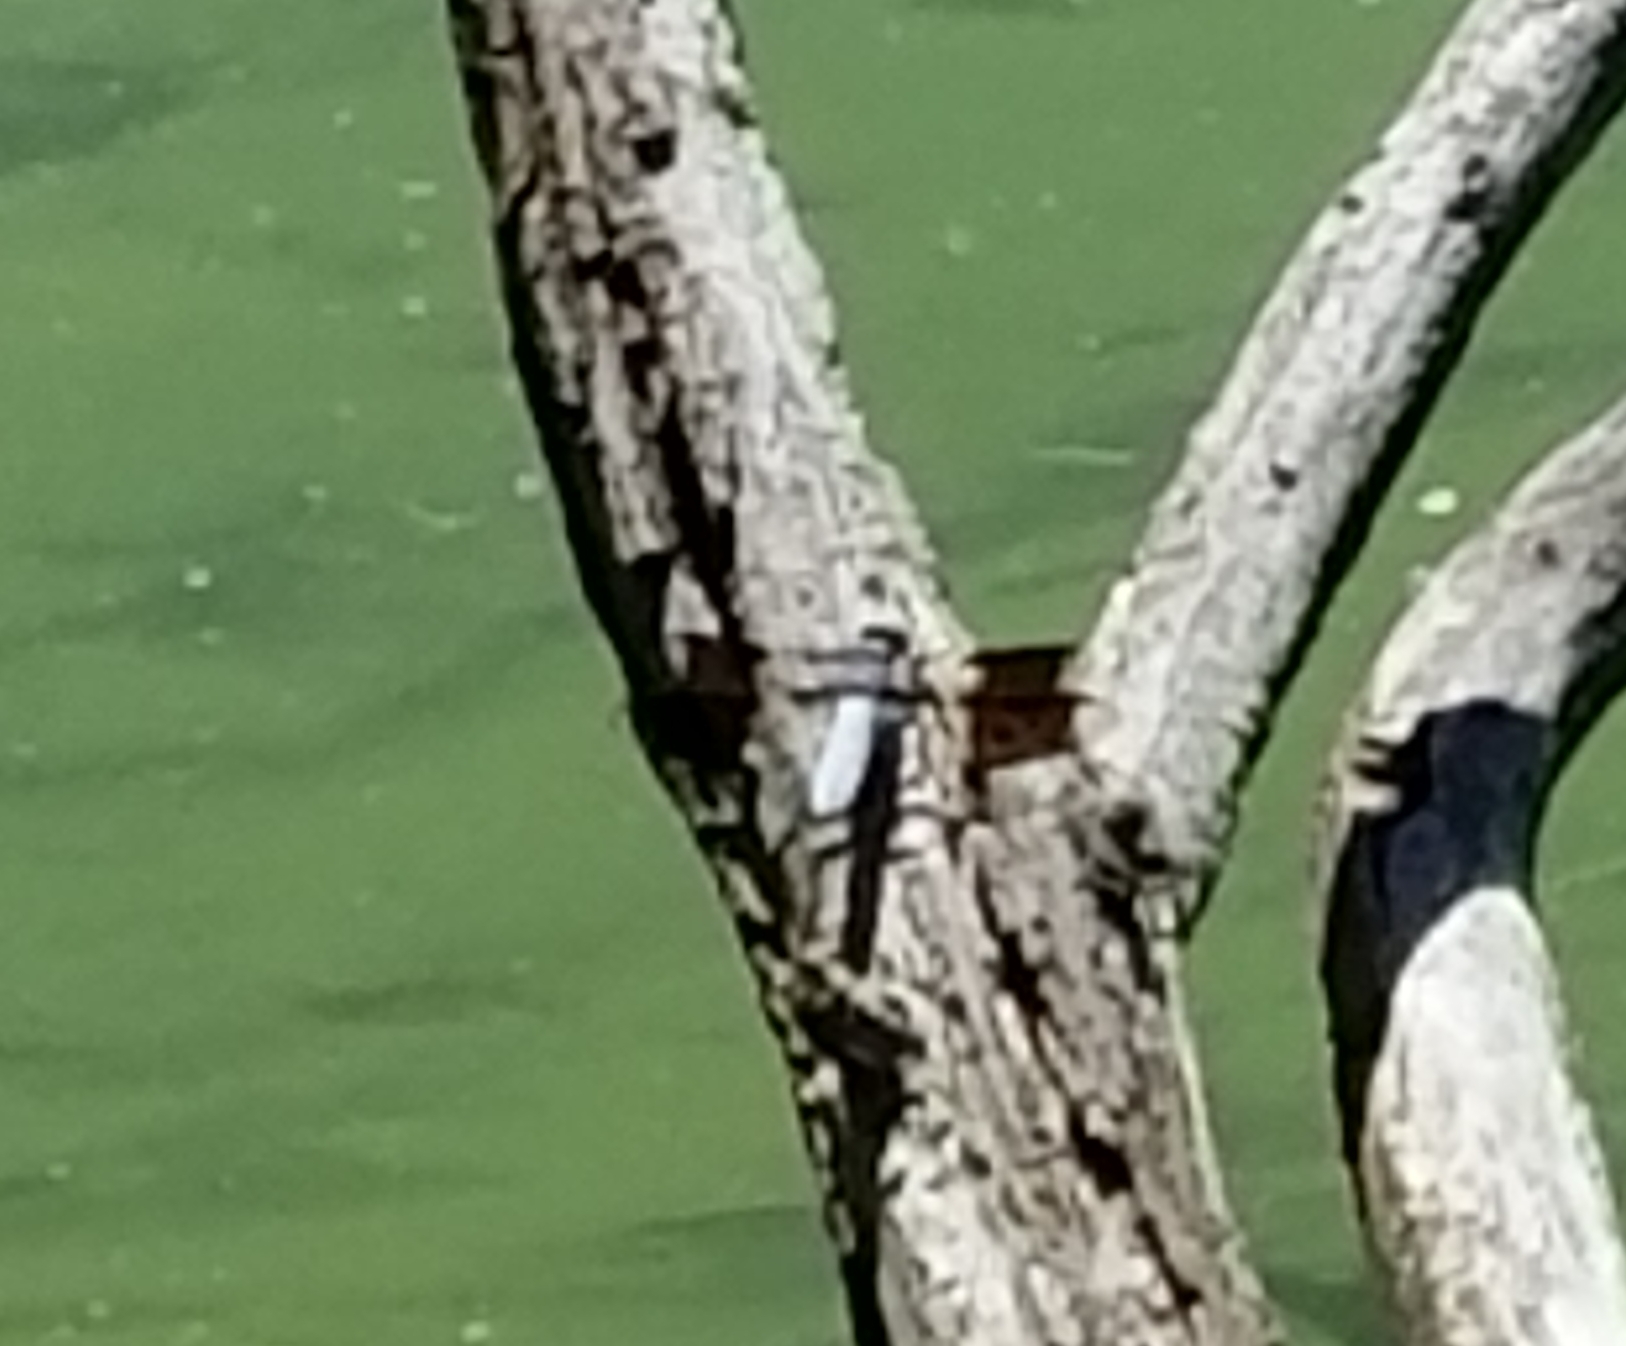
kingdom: Animalia
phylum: Arthropoda
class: Insecta
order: Odonata
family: Libellulidae
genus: Plathemis
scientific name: Plathemis lydia
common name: Common whitetail
